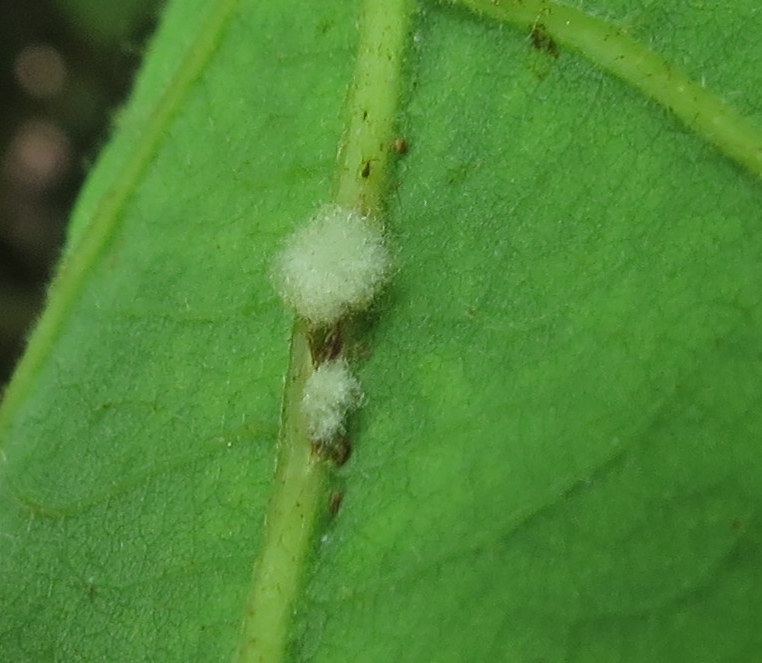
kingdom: Animalia
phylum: Arthropoda
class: Insecta
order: Hymenoptera
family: Cynipidae
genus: Andricus
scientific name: Andricus Druon ignotum
